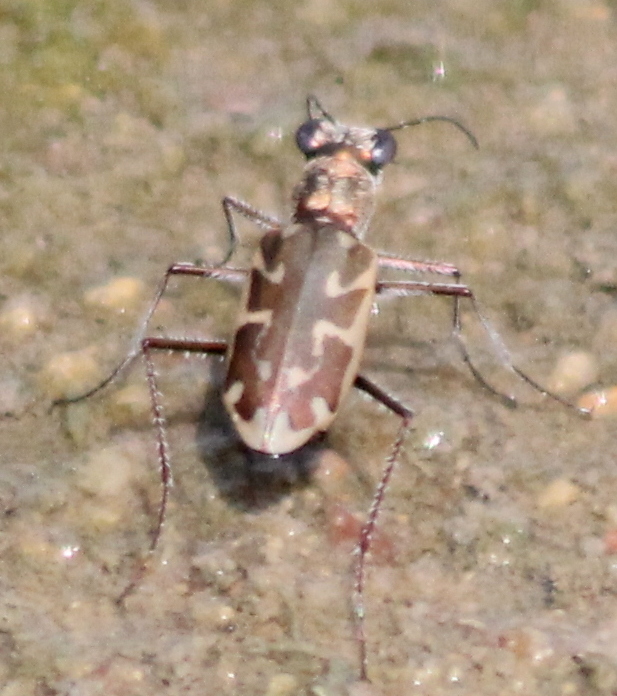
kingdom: Animalia
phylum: Arthropoda
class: Insecta
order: Coleoptera
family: Carabidae
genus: Ellipsoptera
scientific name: Ellipsoptera macra
